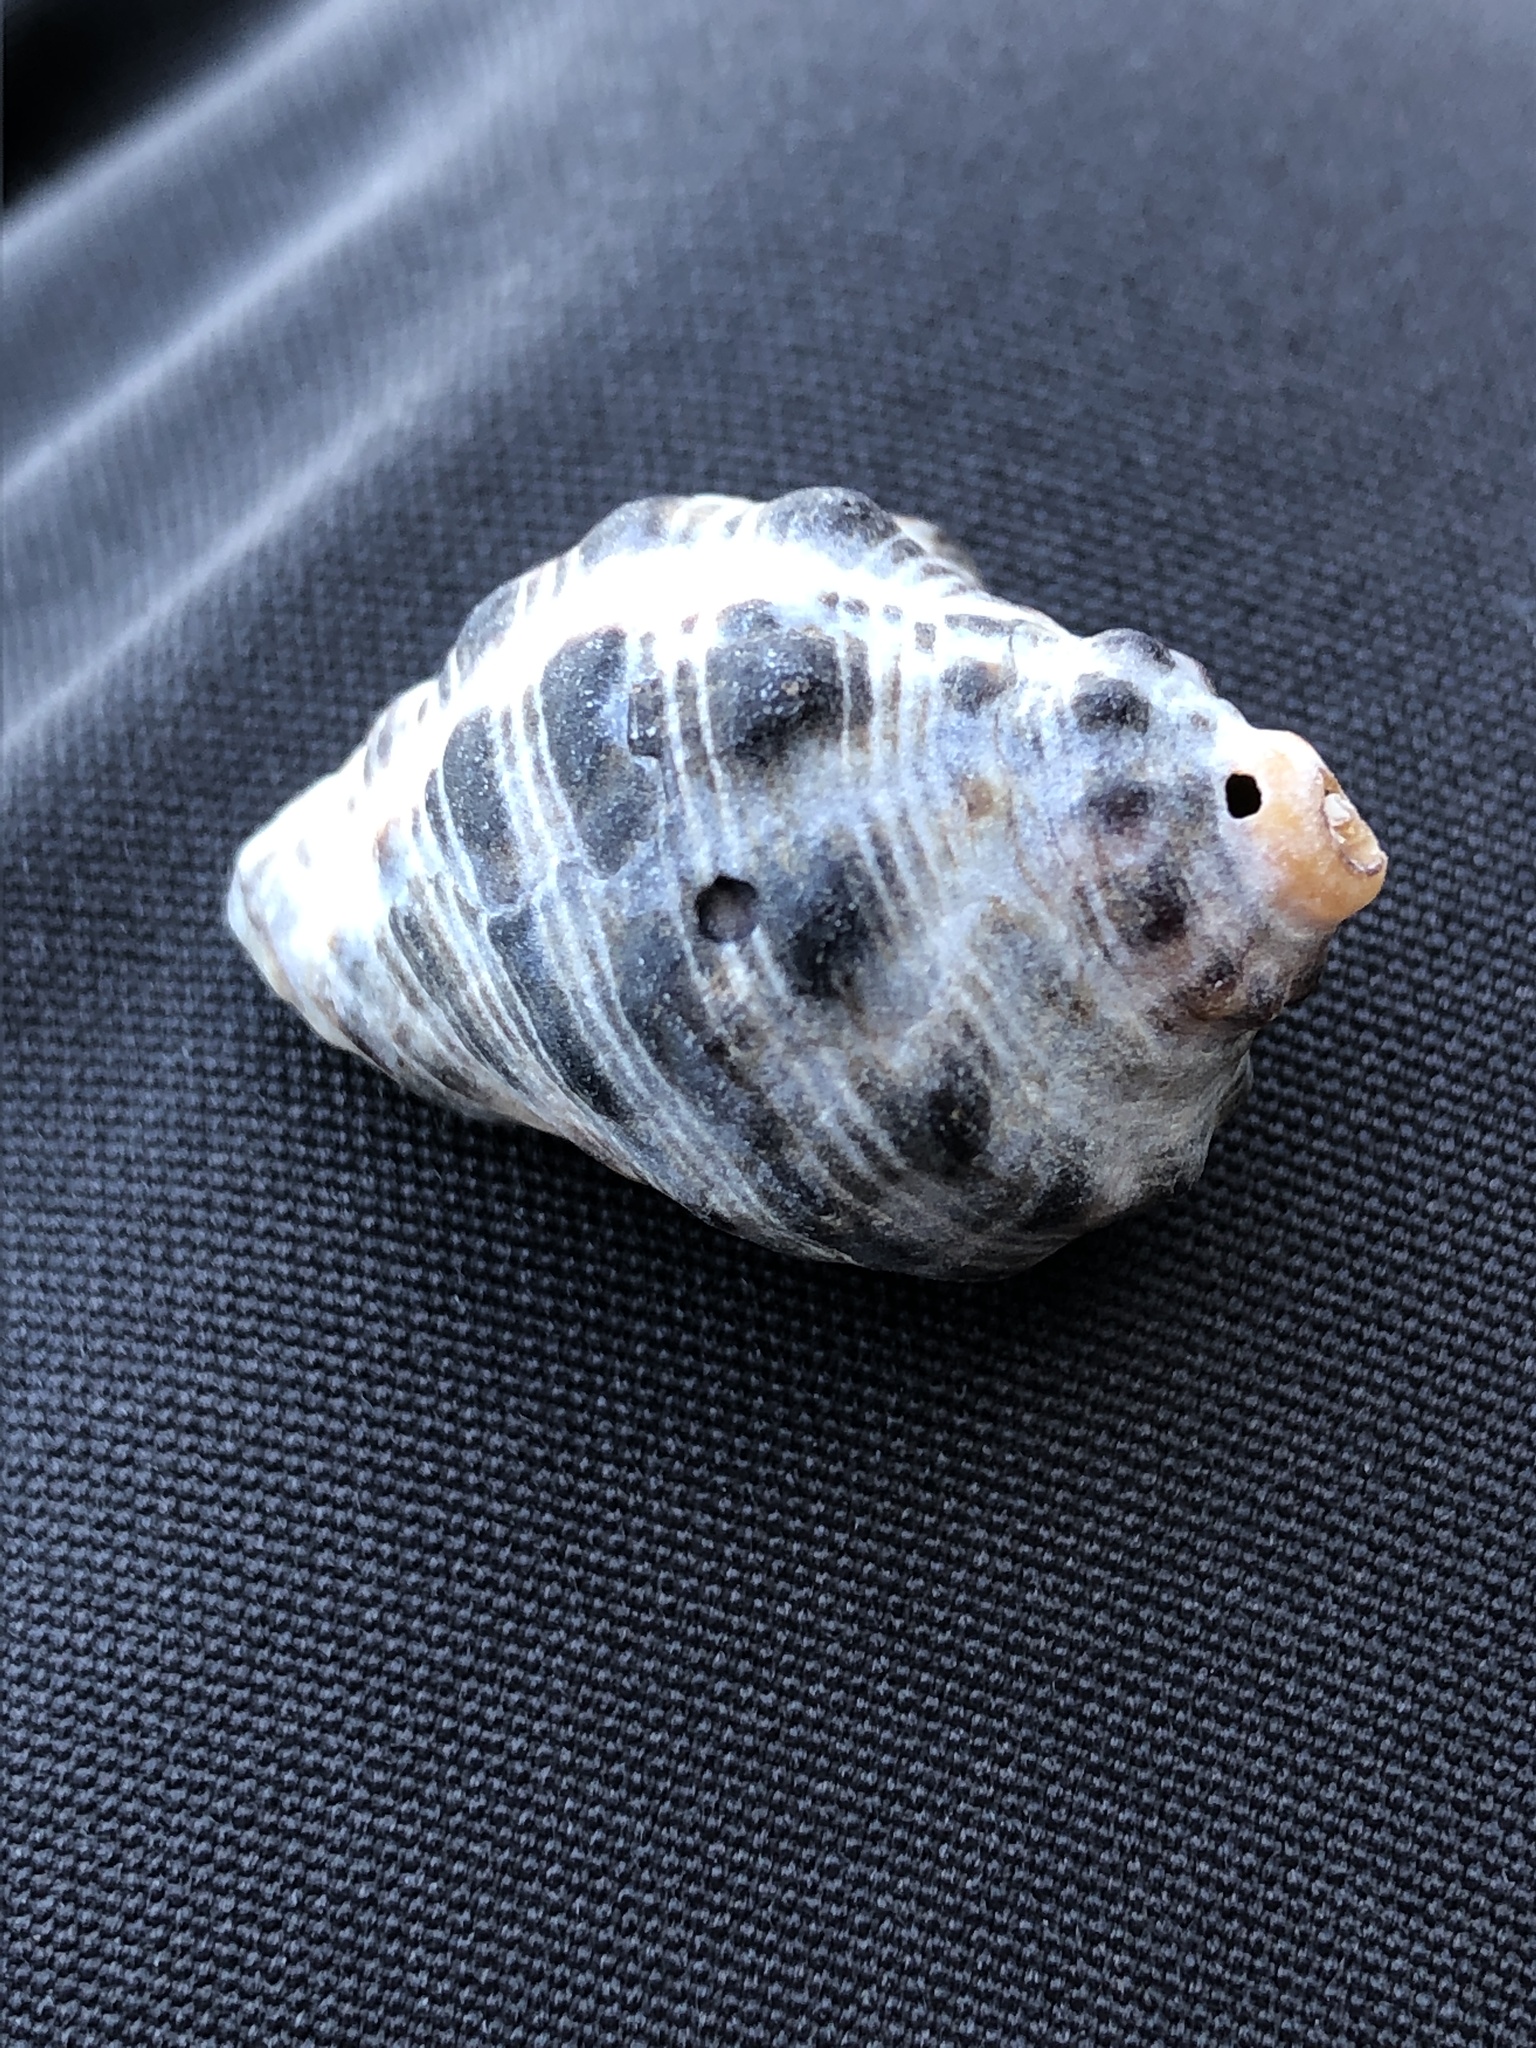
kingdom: Animalia
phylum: Mollusca
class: Gastropoda
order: Neogastropoda
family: Muricidae
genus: Reishia
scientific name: Reishia clavigera
